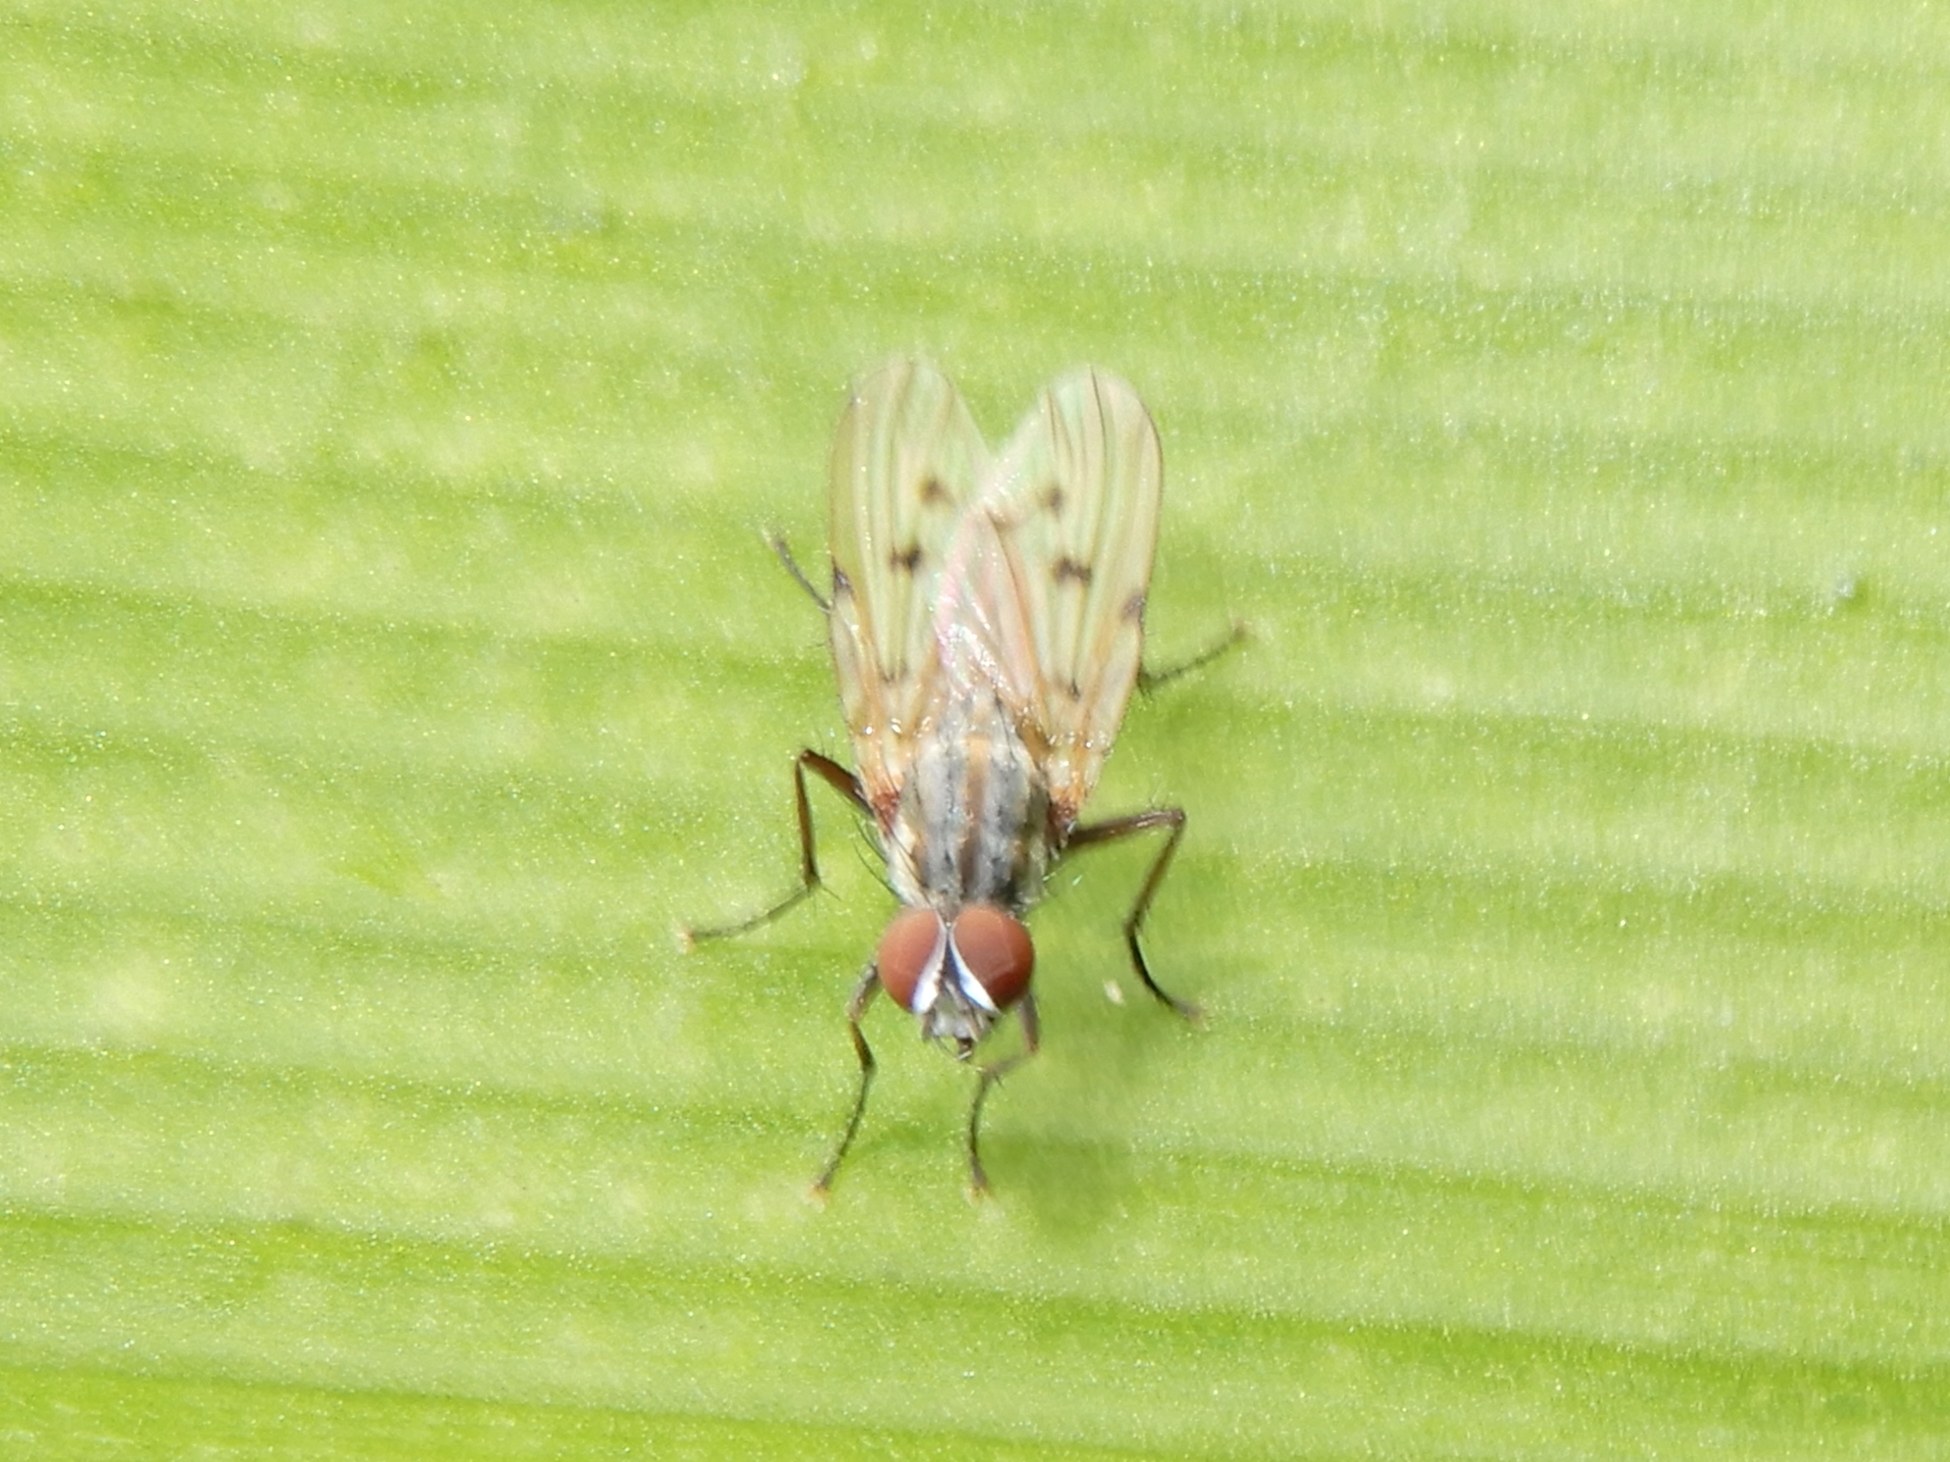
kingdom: Animalia
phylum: Arthropoda
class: Insecta
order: Diptera
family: Anthomyiidae
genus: Anthomyia
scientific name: Anthomyia punctipennis
